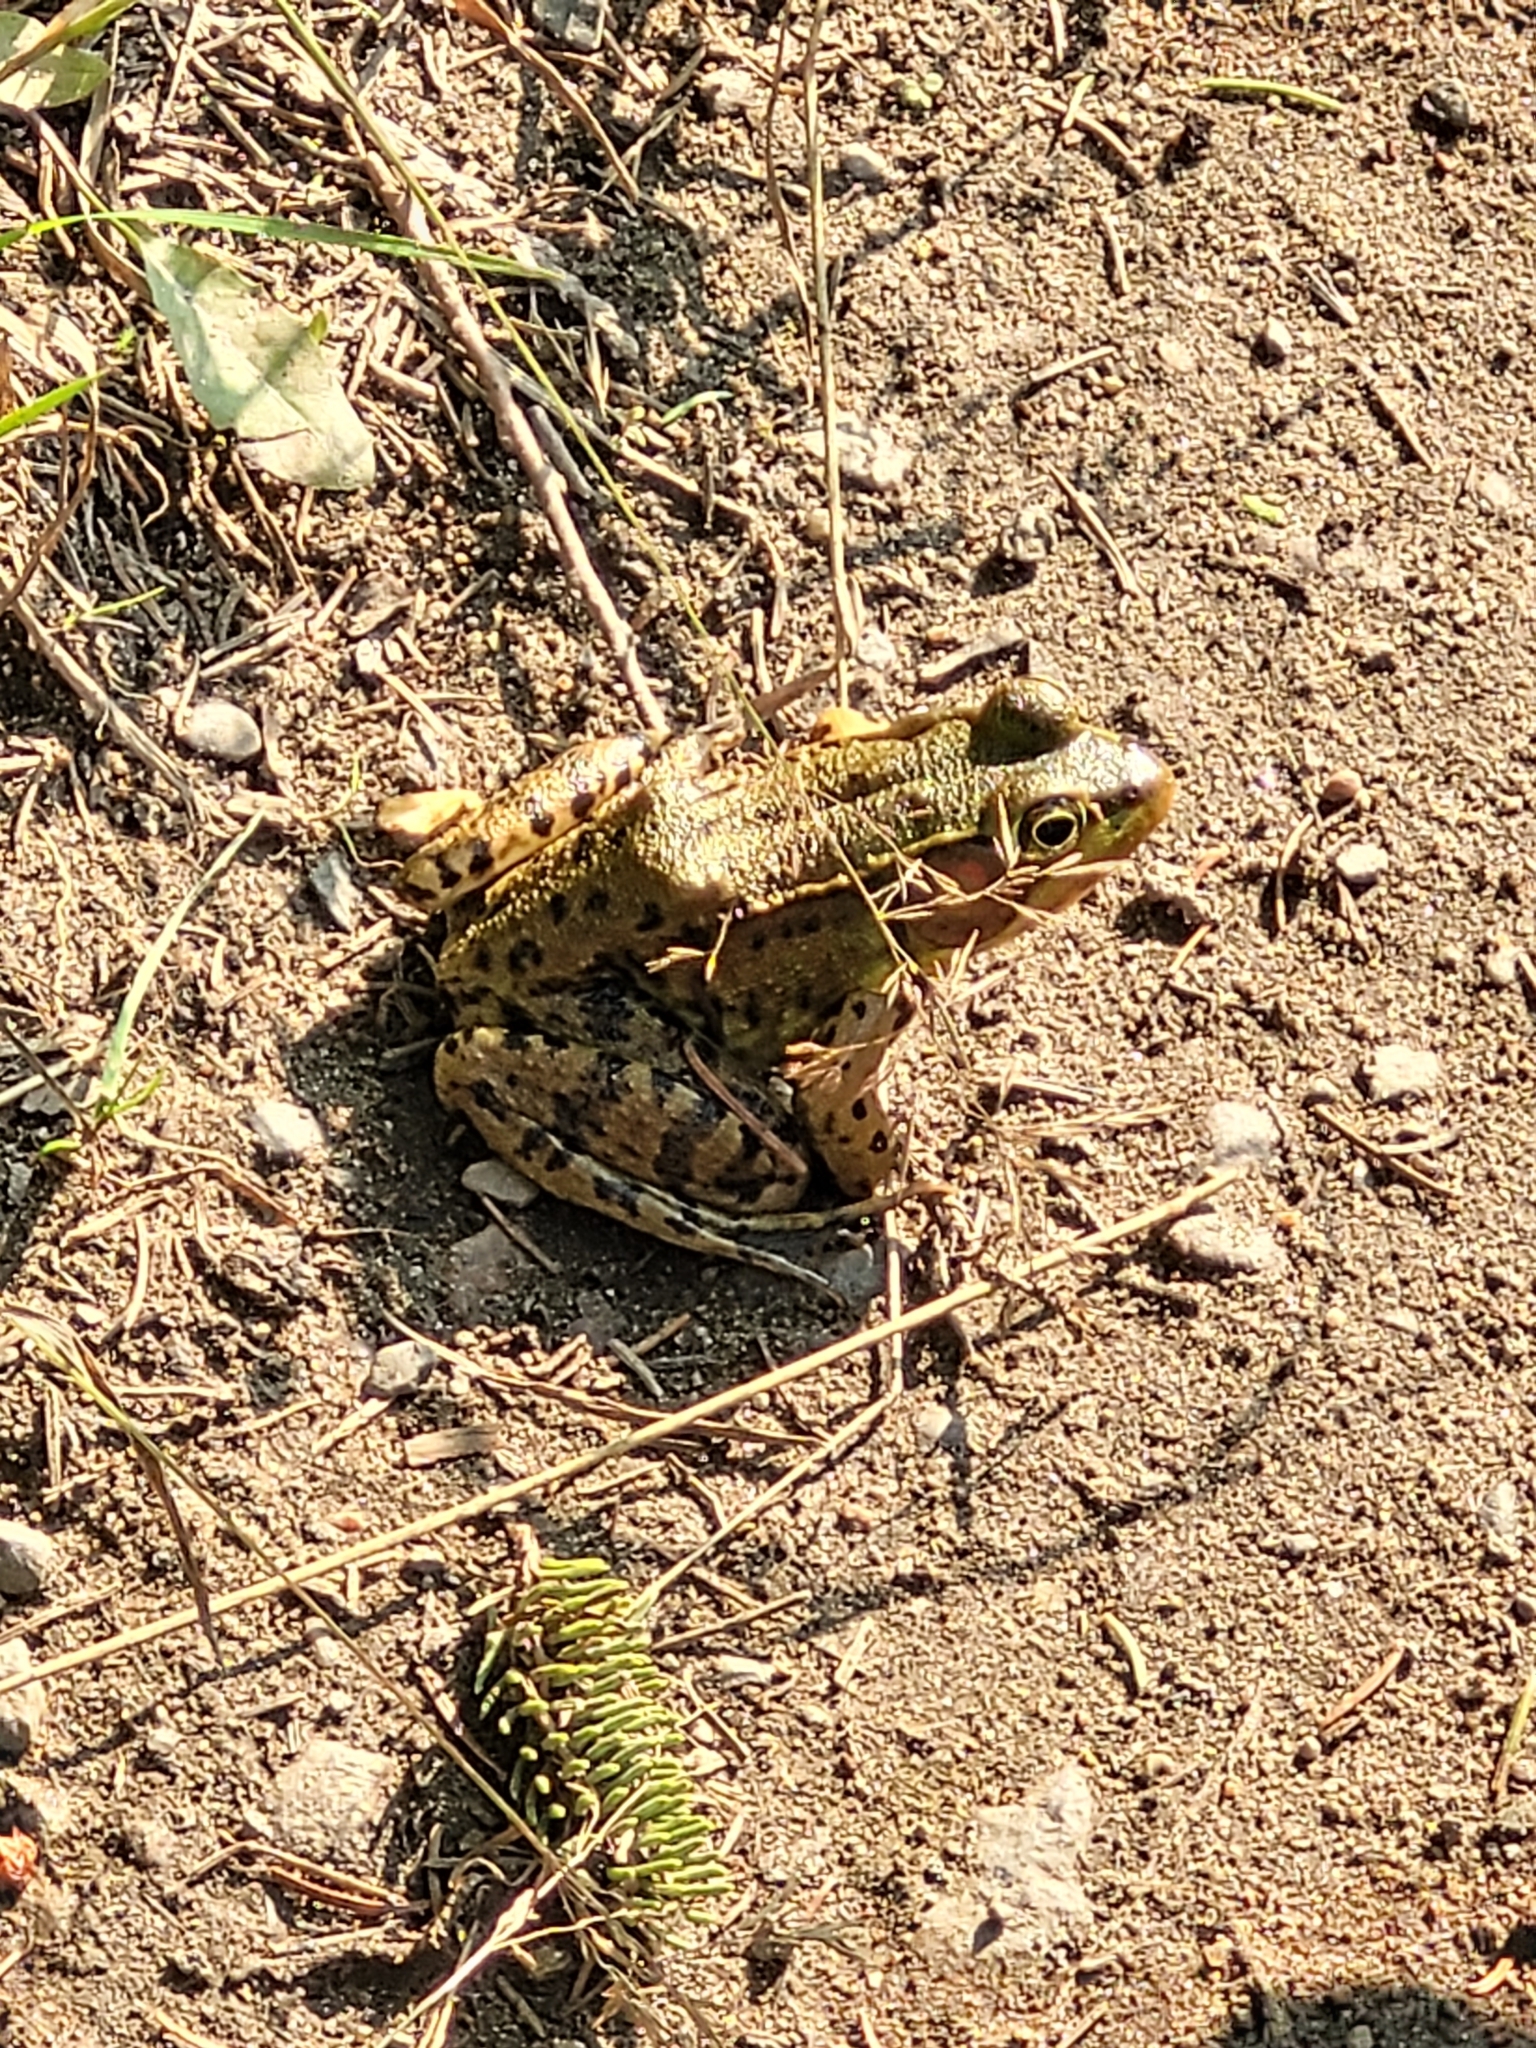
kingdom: Animalia
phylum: Chordata
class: Amphibia
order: Anura
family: Ranidae
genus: Lithobates
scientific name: Lithobates clamitans
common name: Green frog
